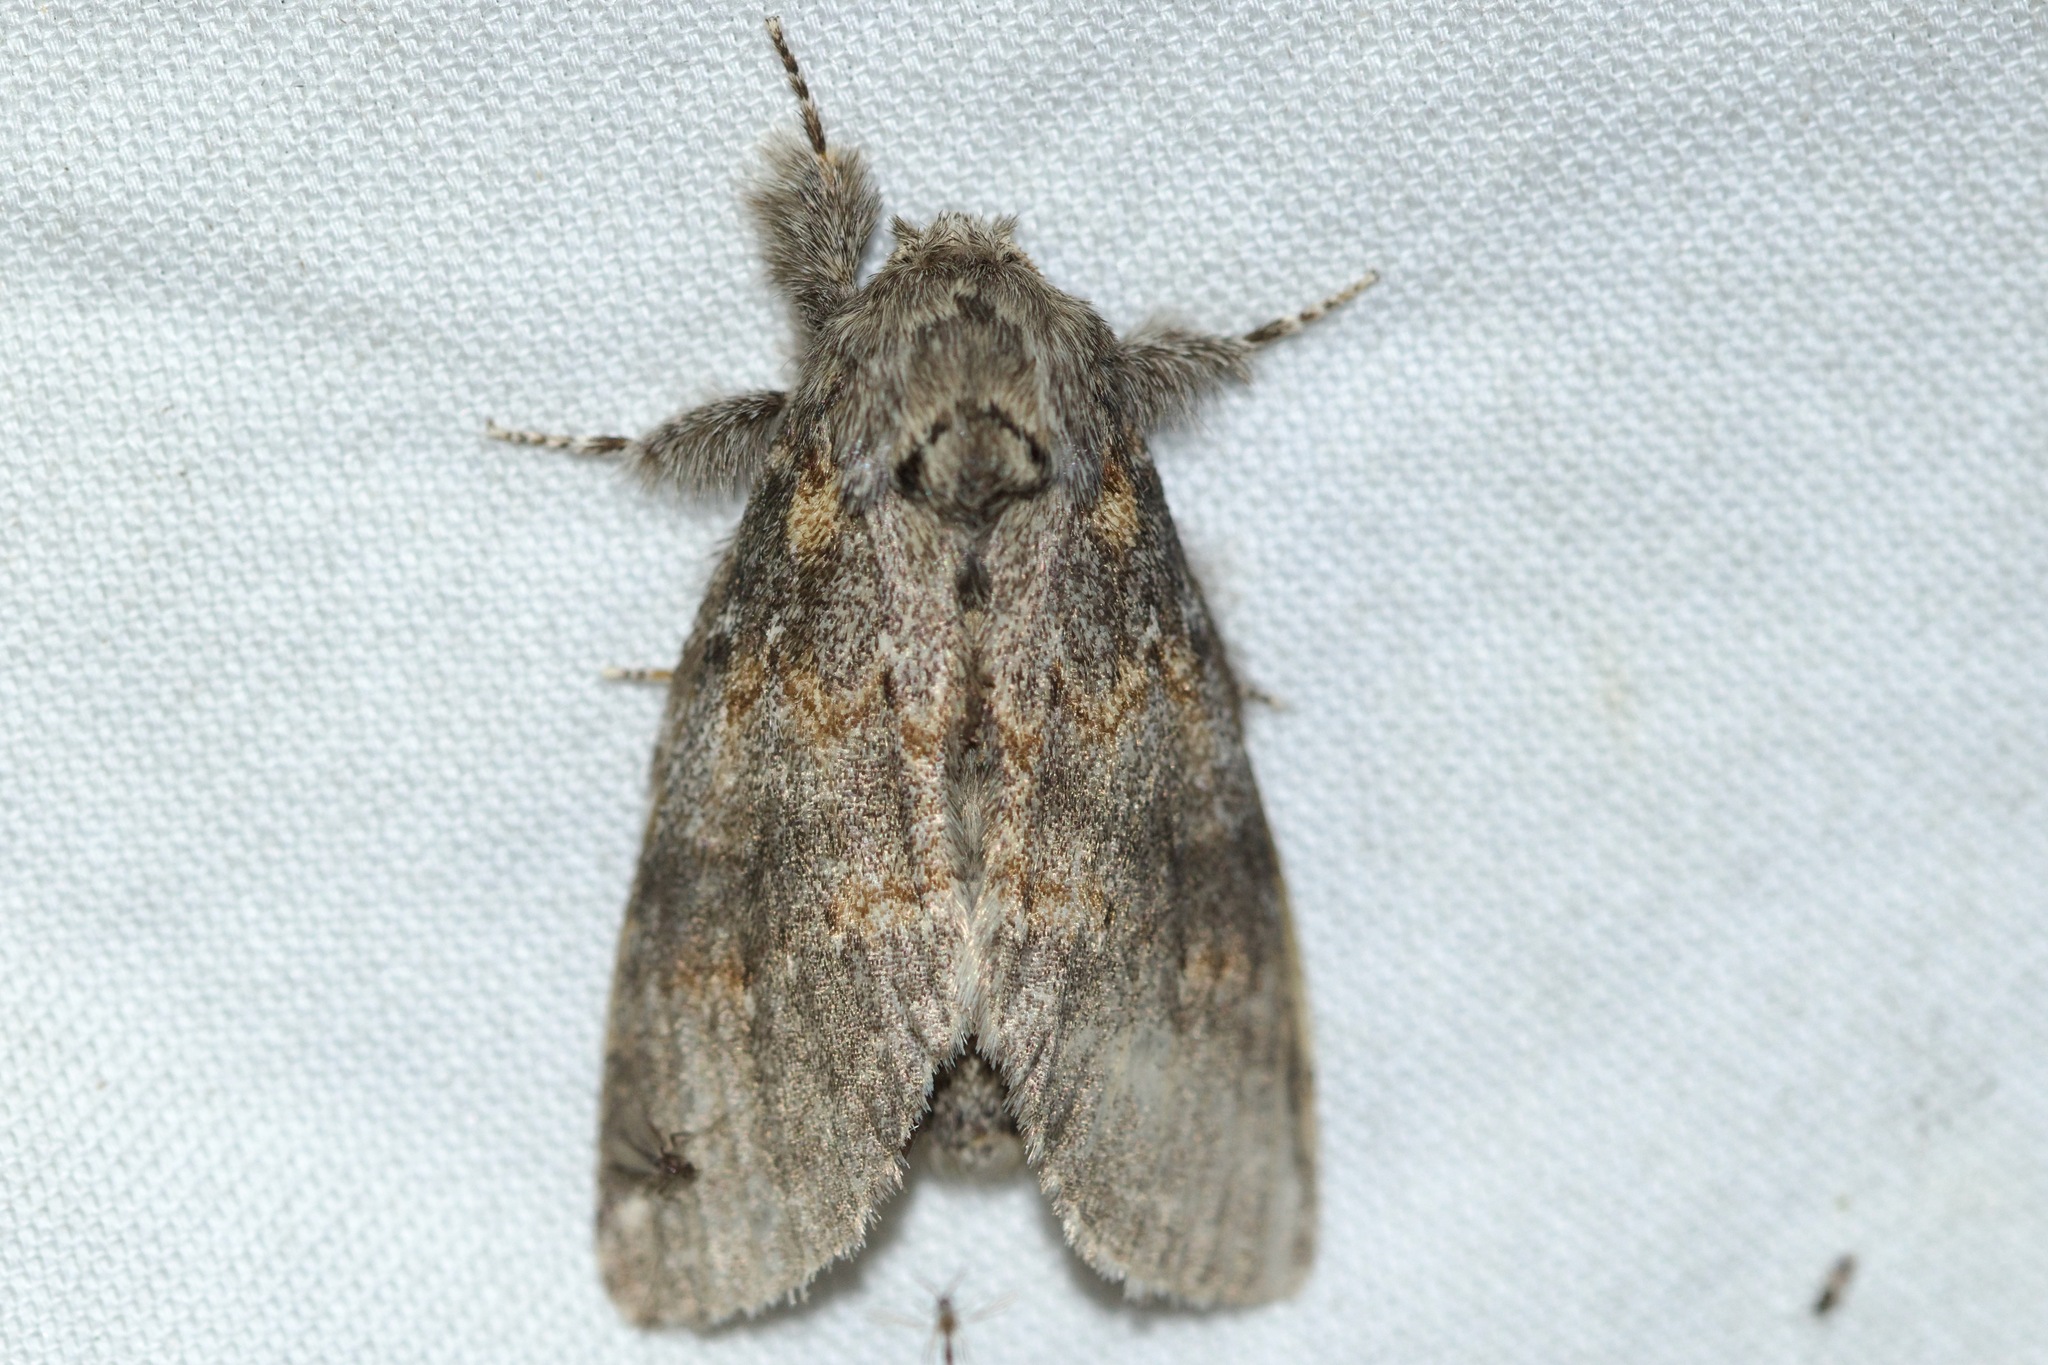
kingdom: Animalia
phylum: Arthropoda
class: Insecta
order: Lepidoptera
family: Notodontidae
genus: Peridea
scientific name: Peridea angulosa
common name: Angulose prominent
